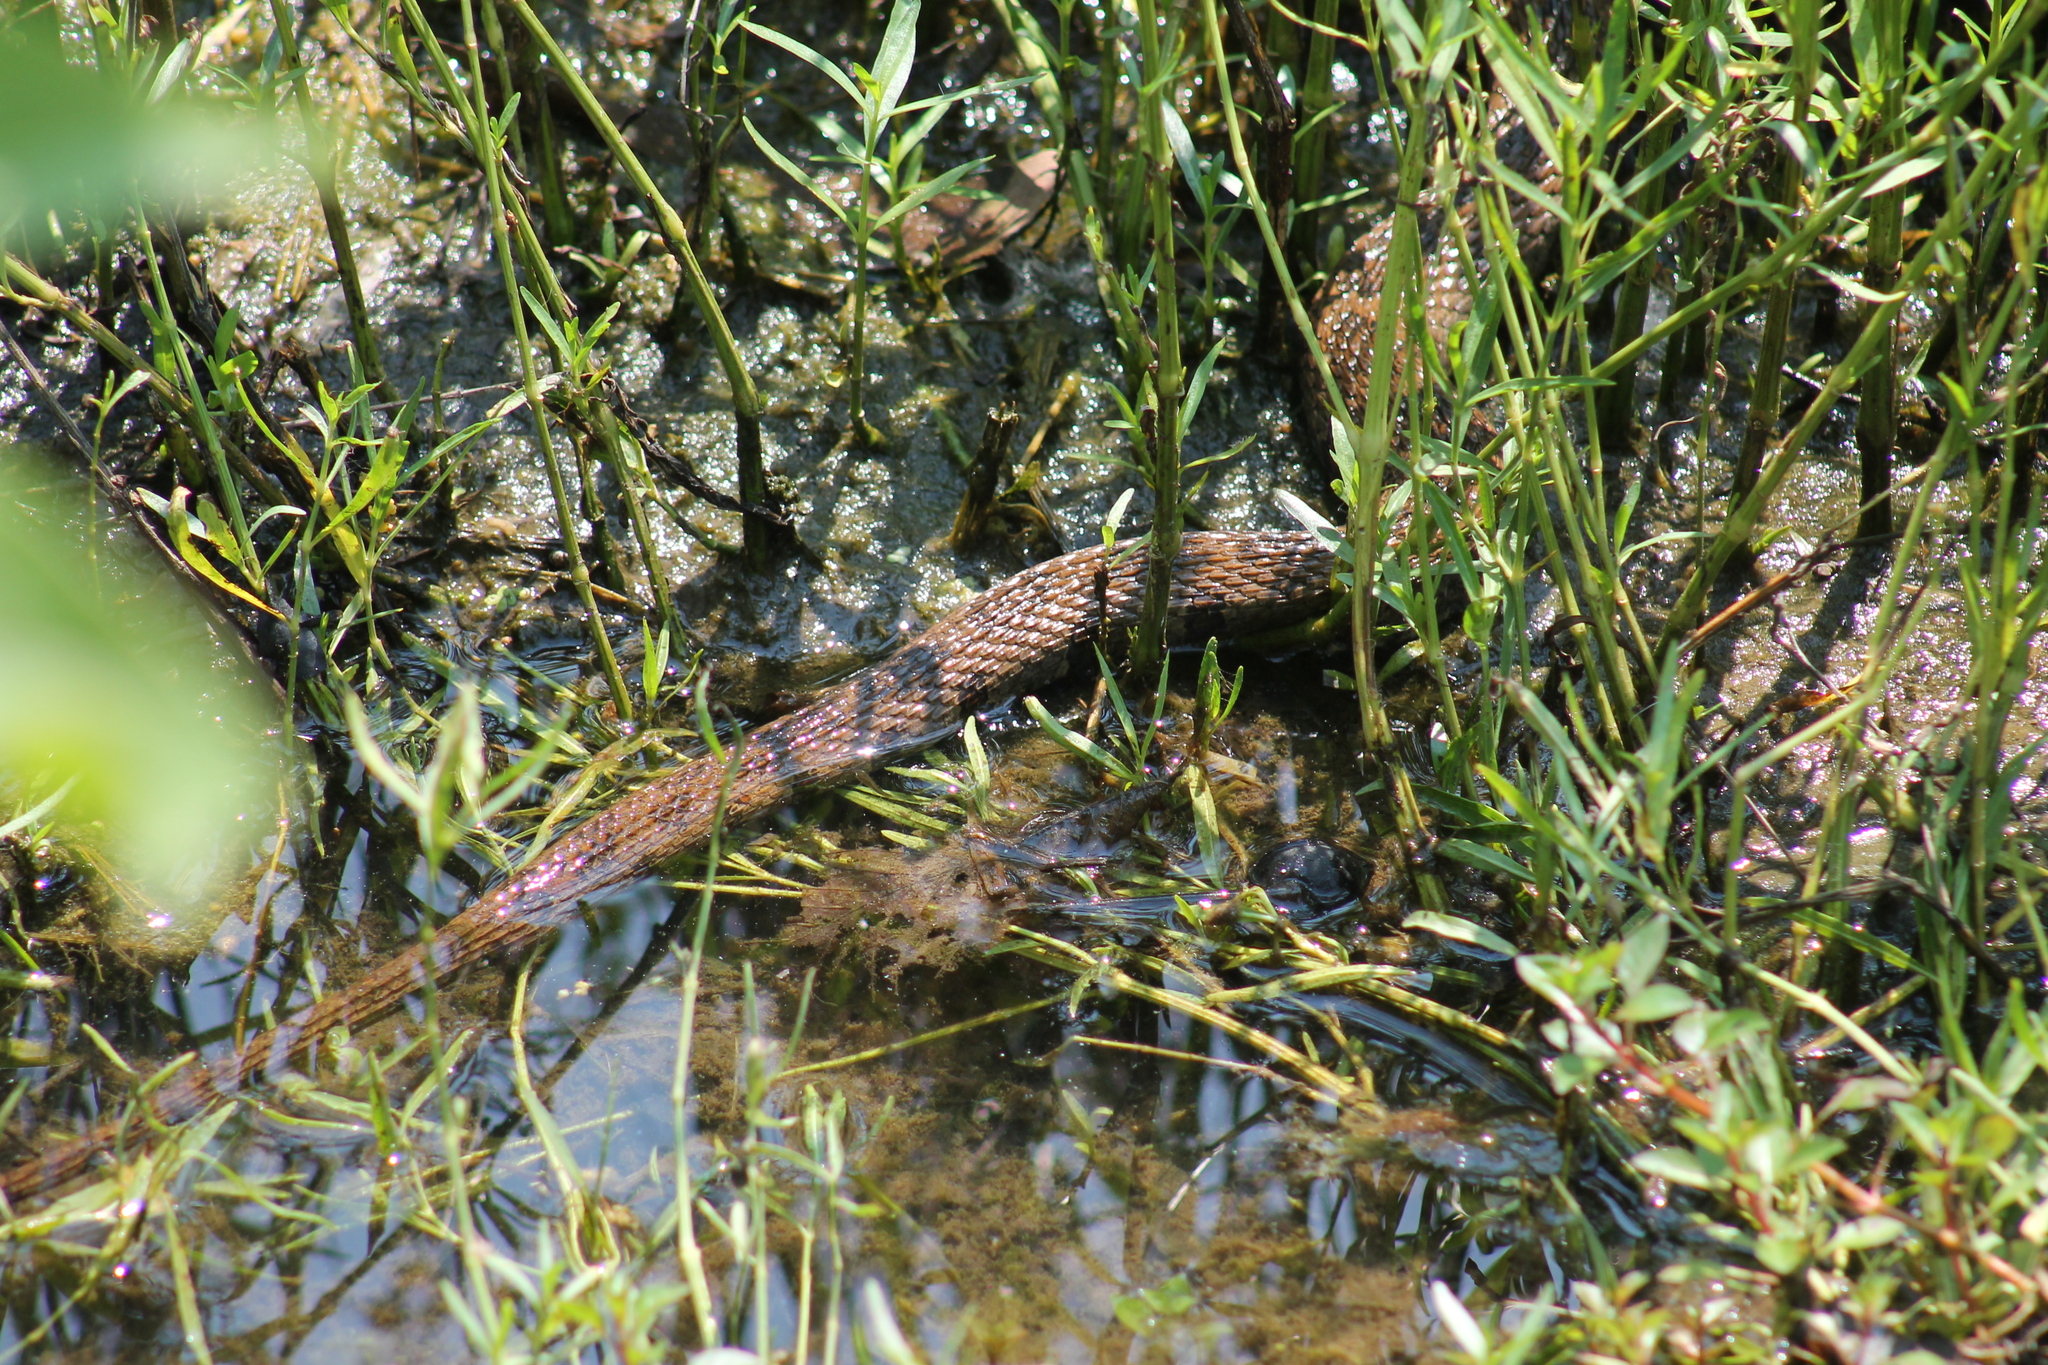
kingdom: Animalia
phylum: Chordata
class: Squamata
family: Colubridae
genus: Nerodia
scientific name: Nerodia sipedon
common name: Northern water snake
